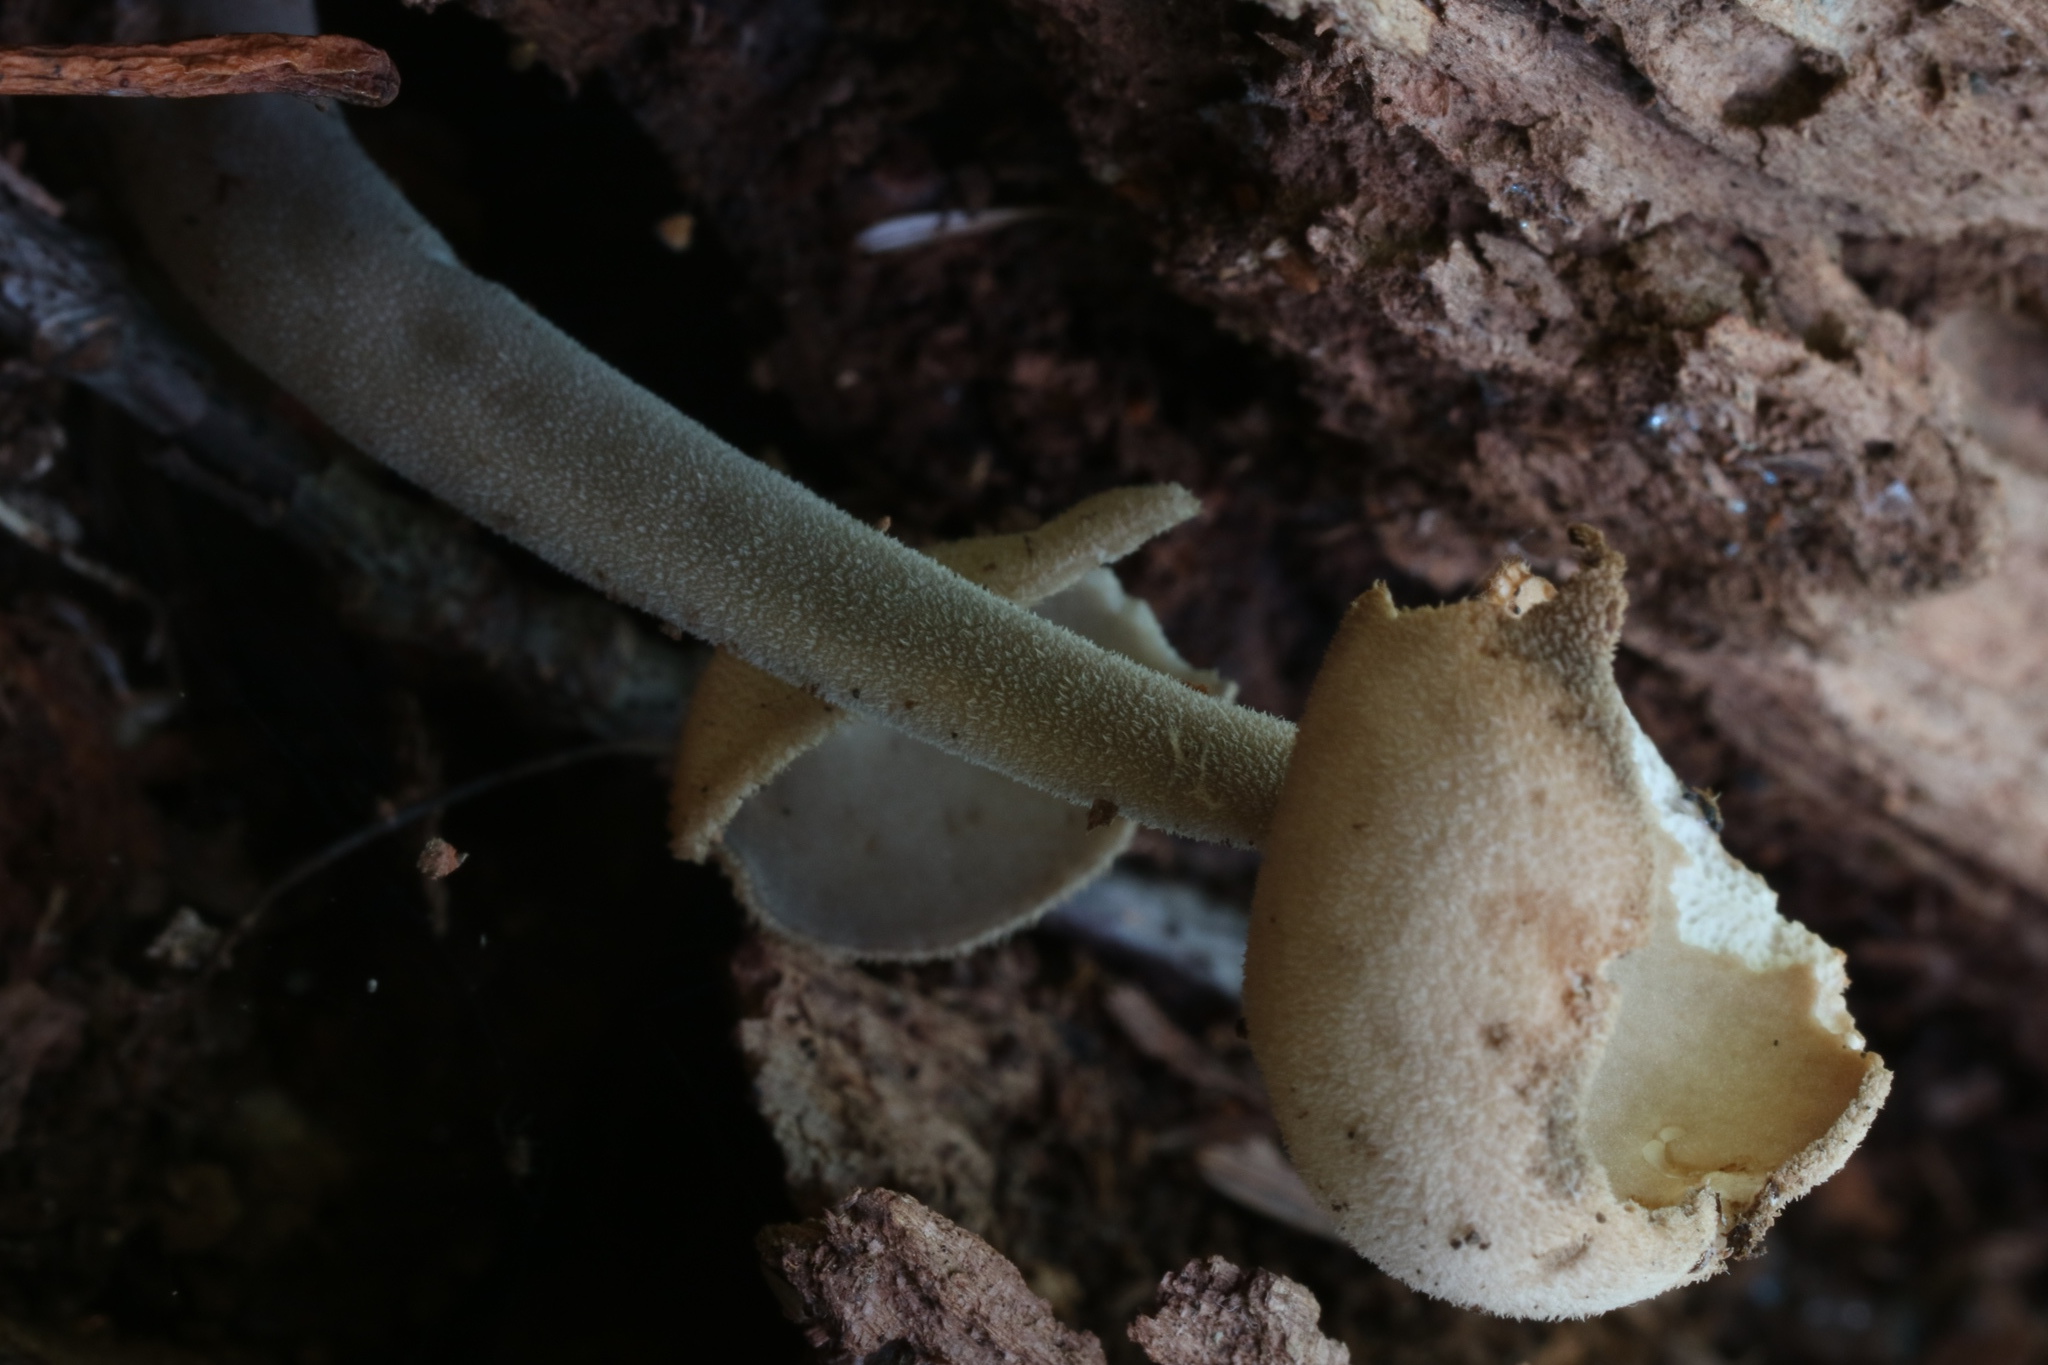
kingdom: Fungi
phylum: Ascomycota
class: Pezizomycetes
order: Pezizales
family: Helvellaceae
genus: Helvella
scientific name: Helvella macropus
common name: Felt saddle
